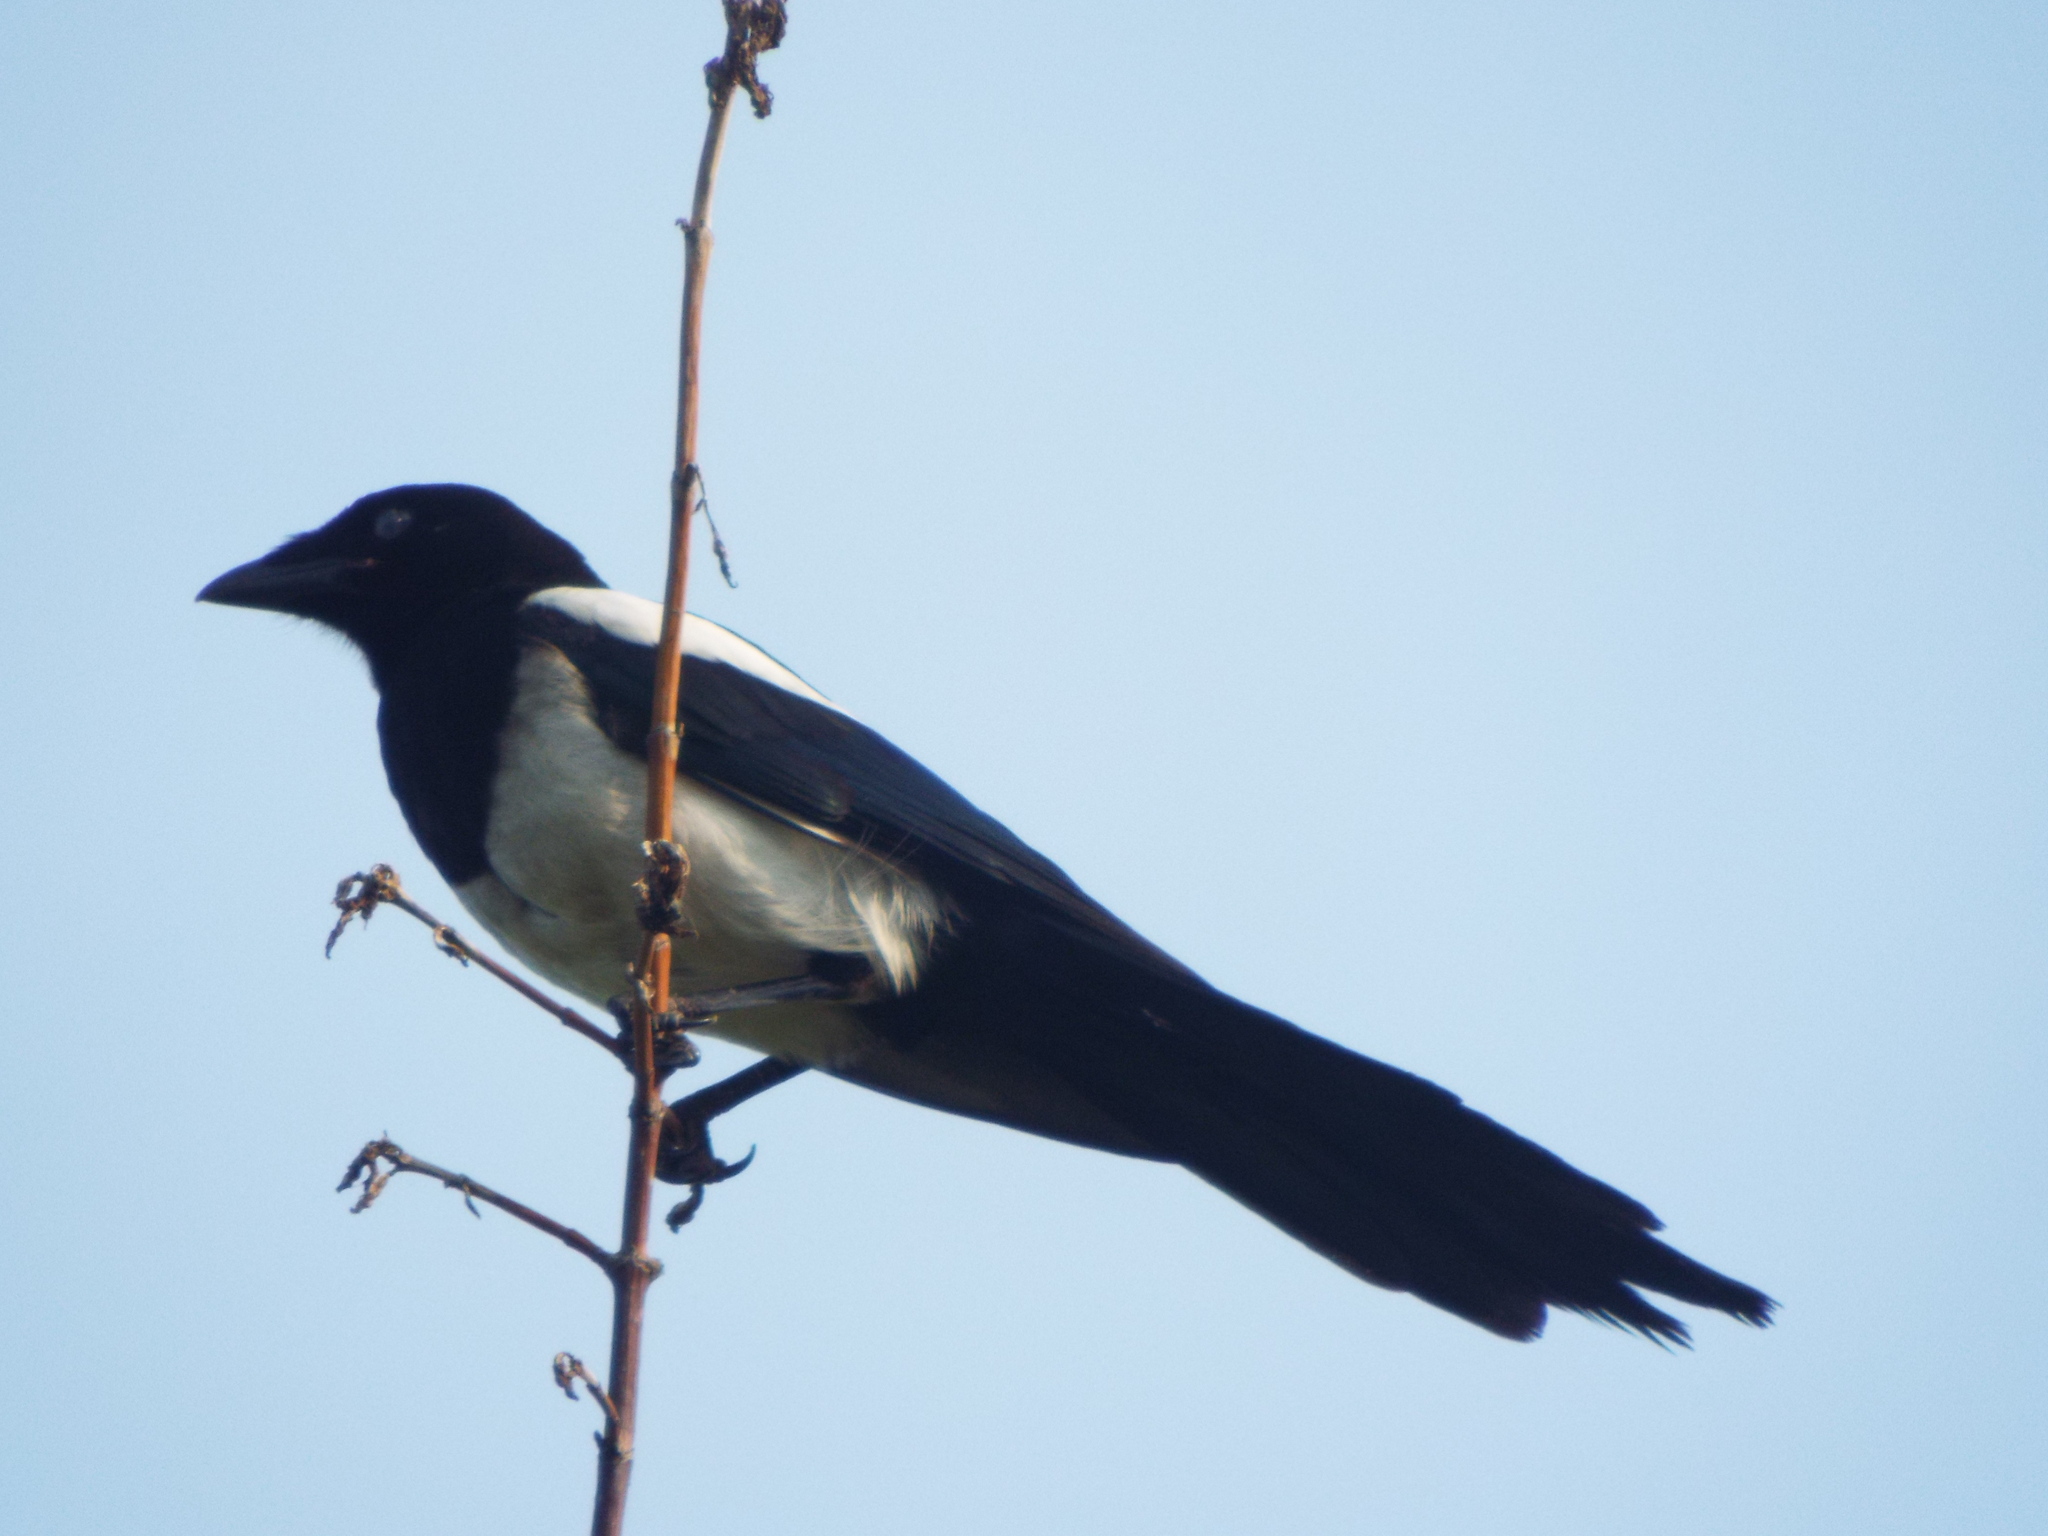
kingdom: Animalia
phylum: Chordata
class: Aves
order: Passeriformes
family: Corvidae
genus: Pica
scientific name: Pica pica
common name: Eurasian magpie
